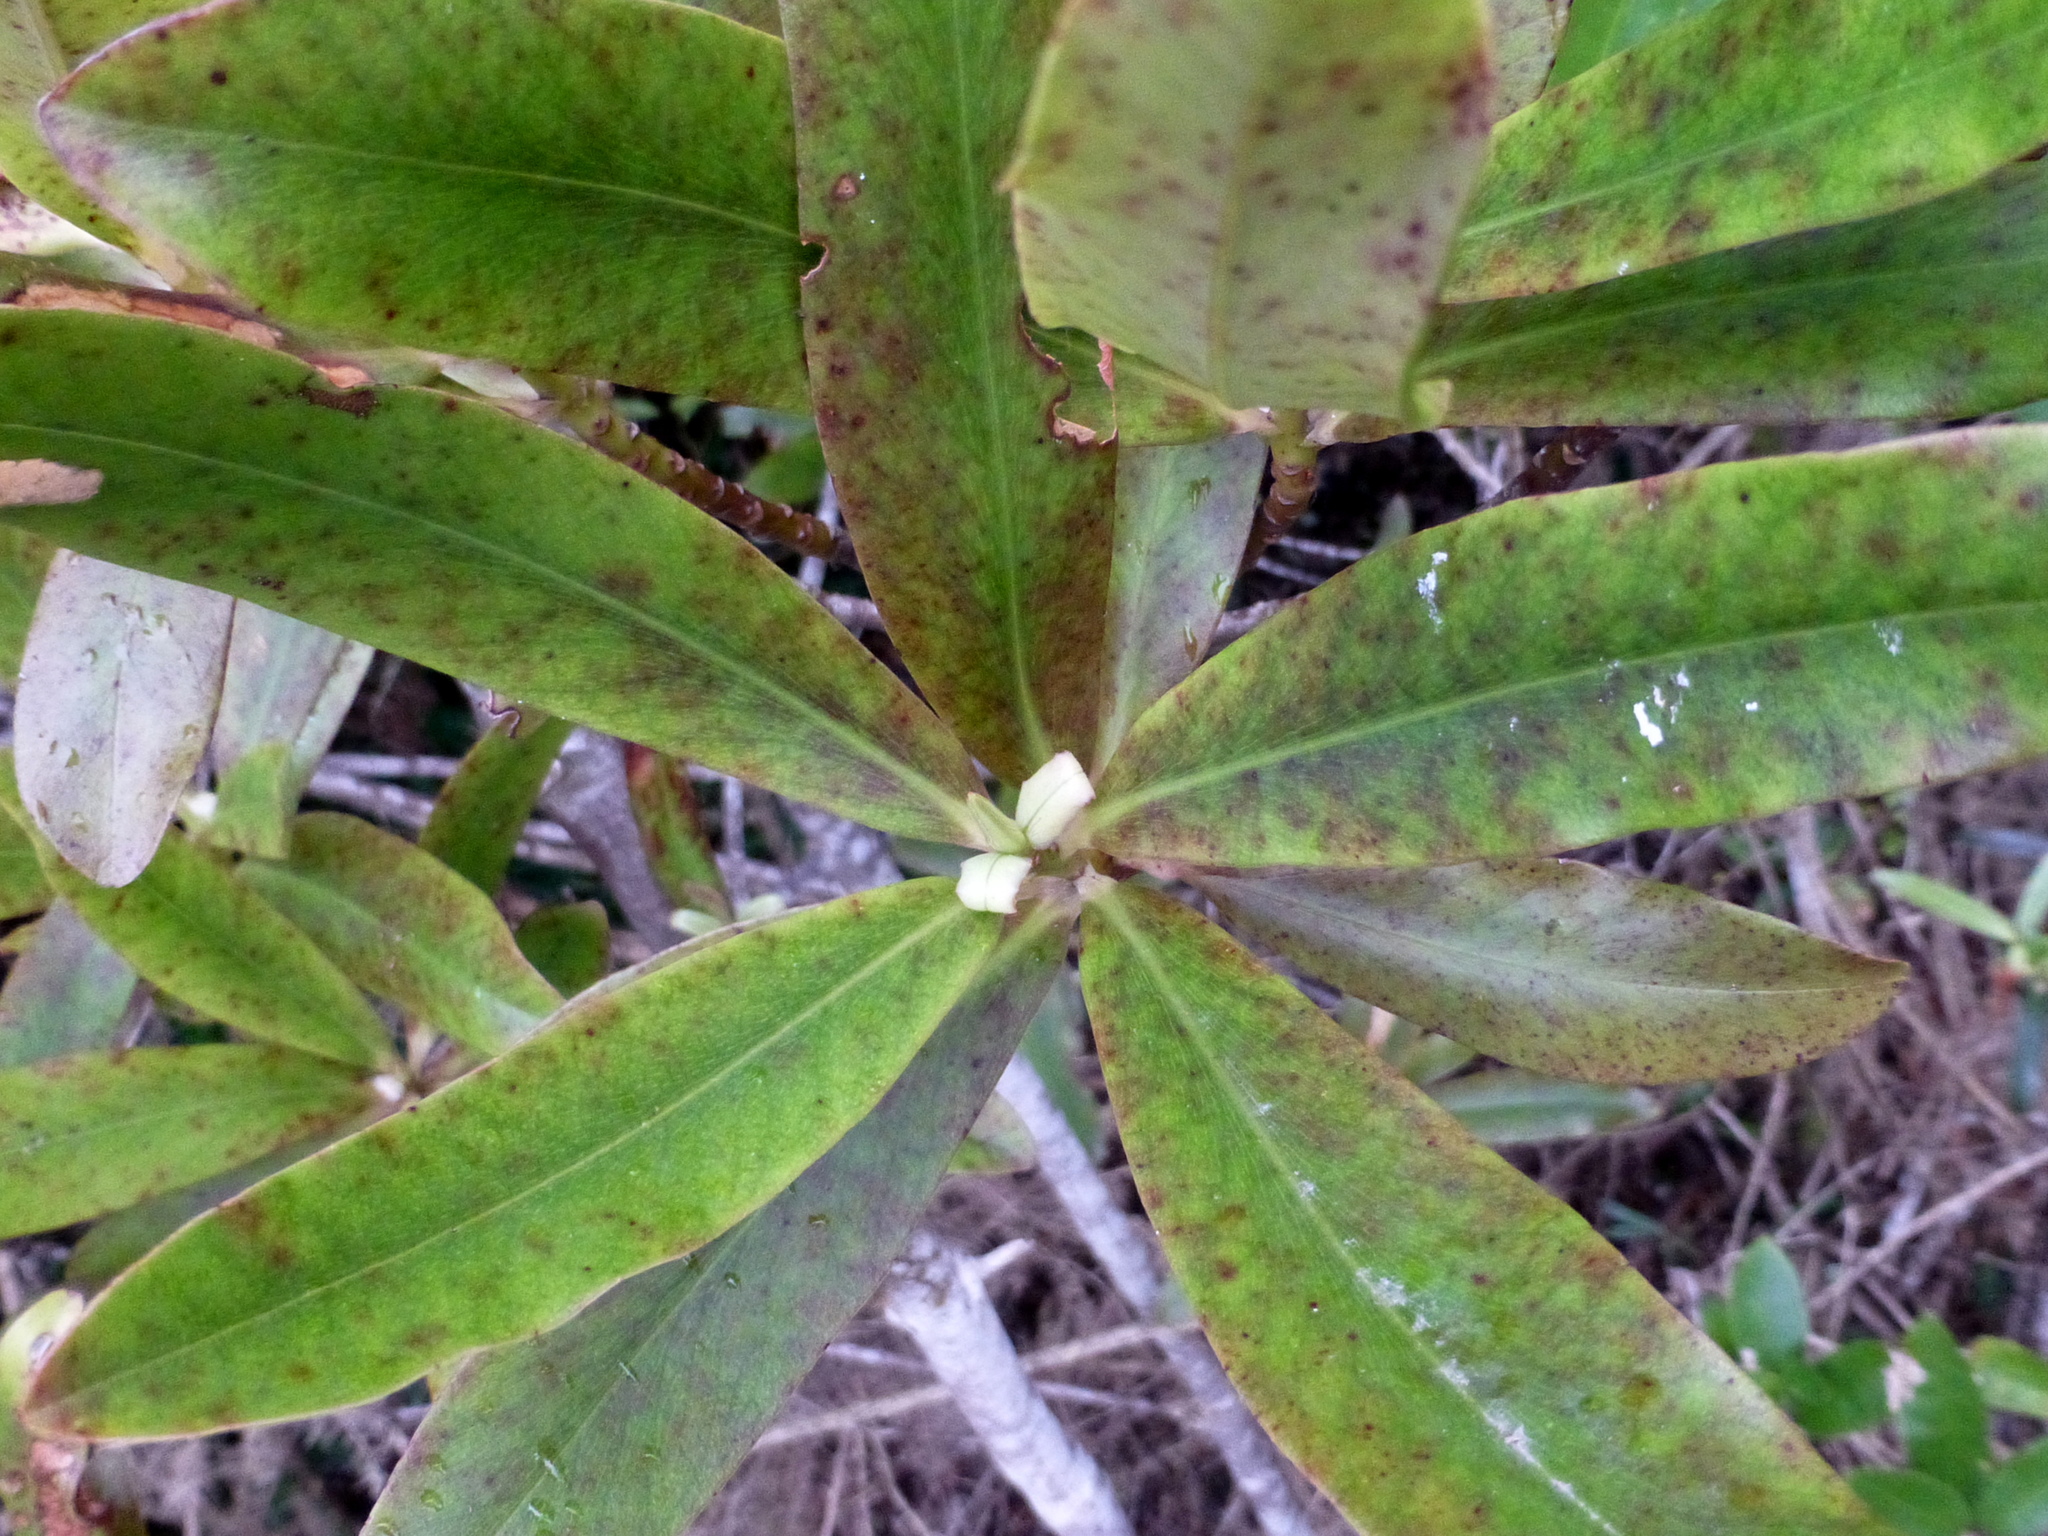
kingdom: Plantae
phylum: Tracheophyta
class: Magnoliopsida
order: Ericales
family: Primulaceae
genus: Myrsine
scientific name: Myrsine salicina
